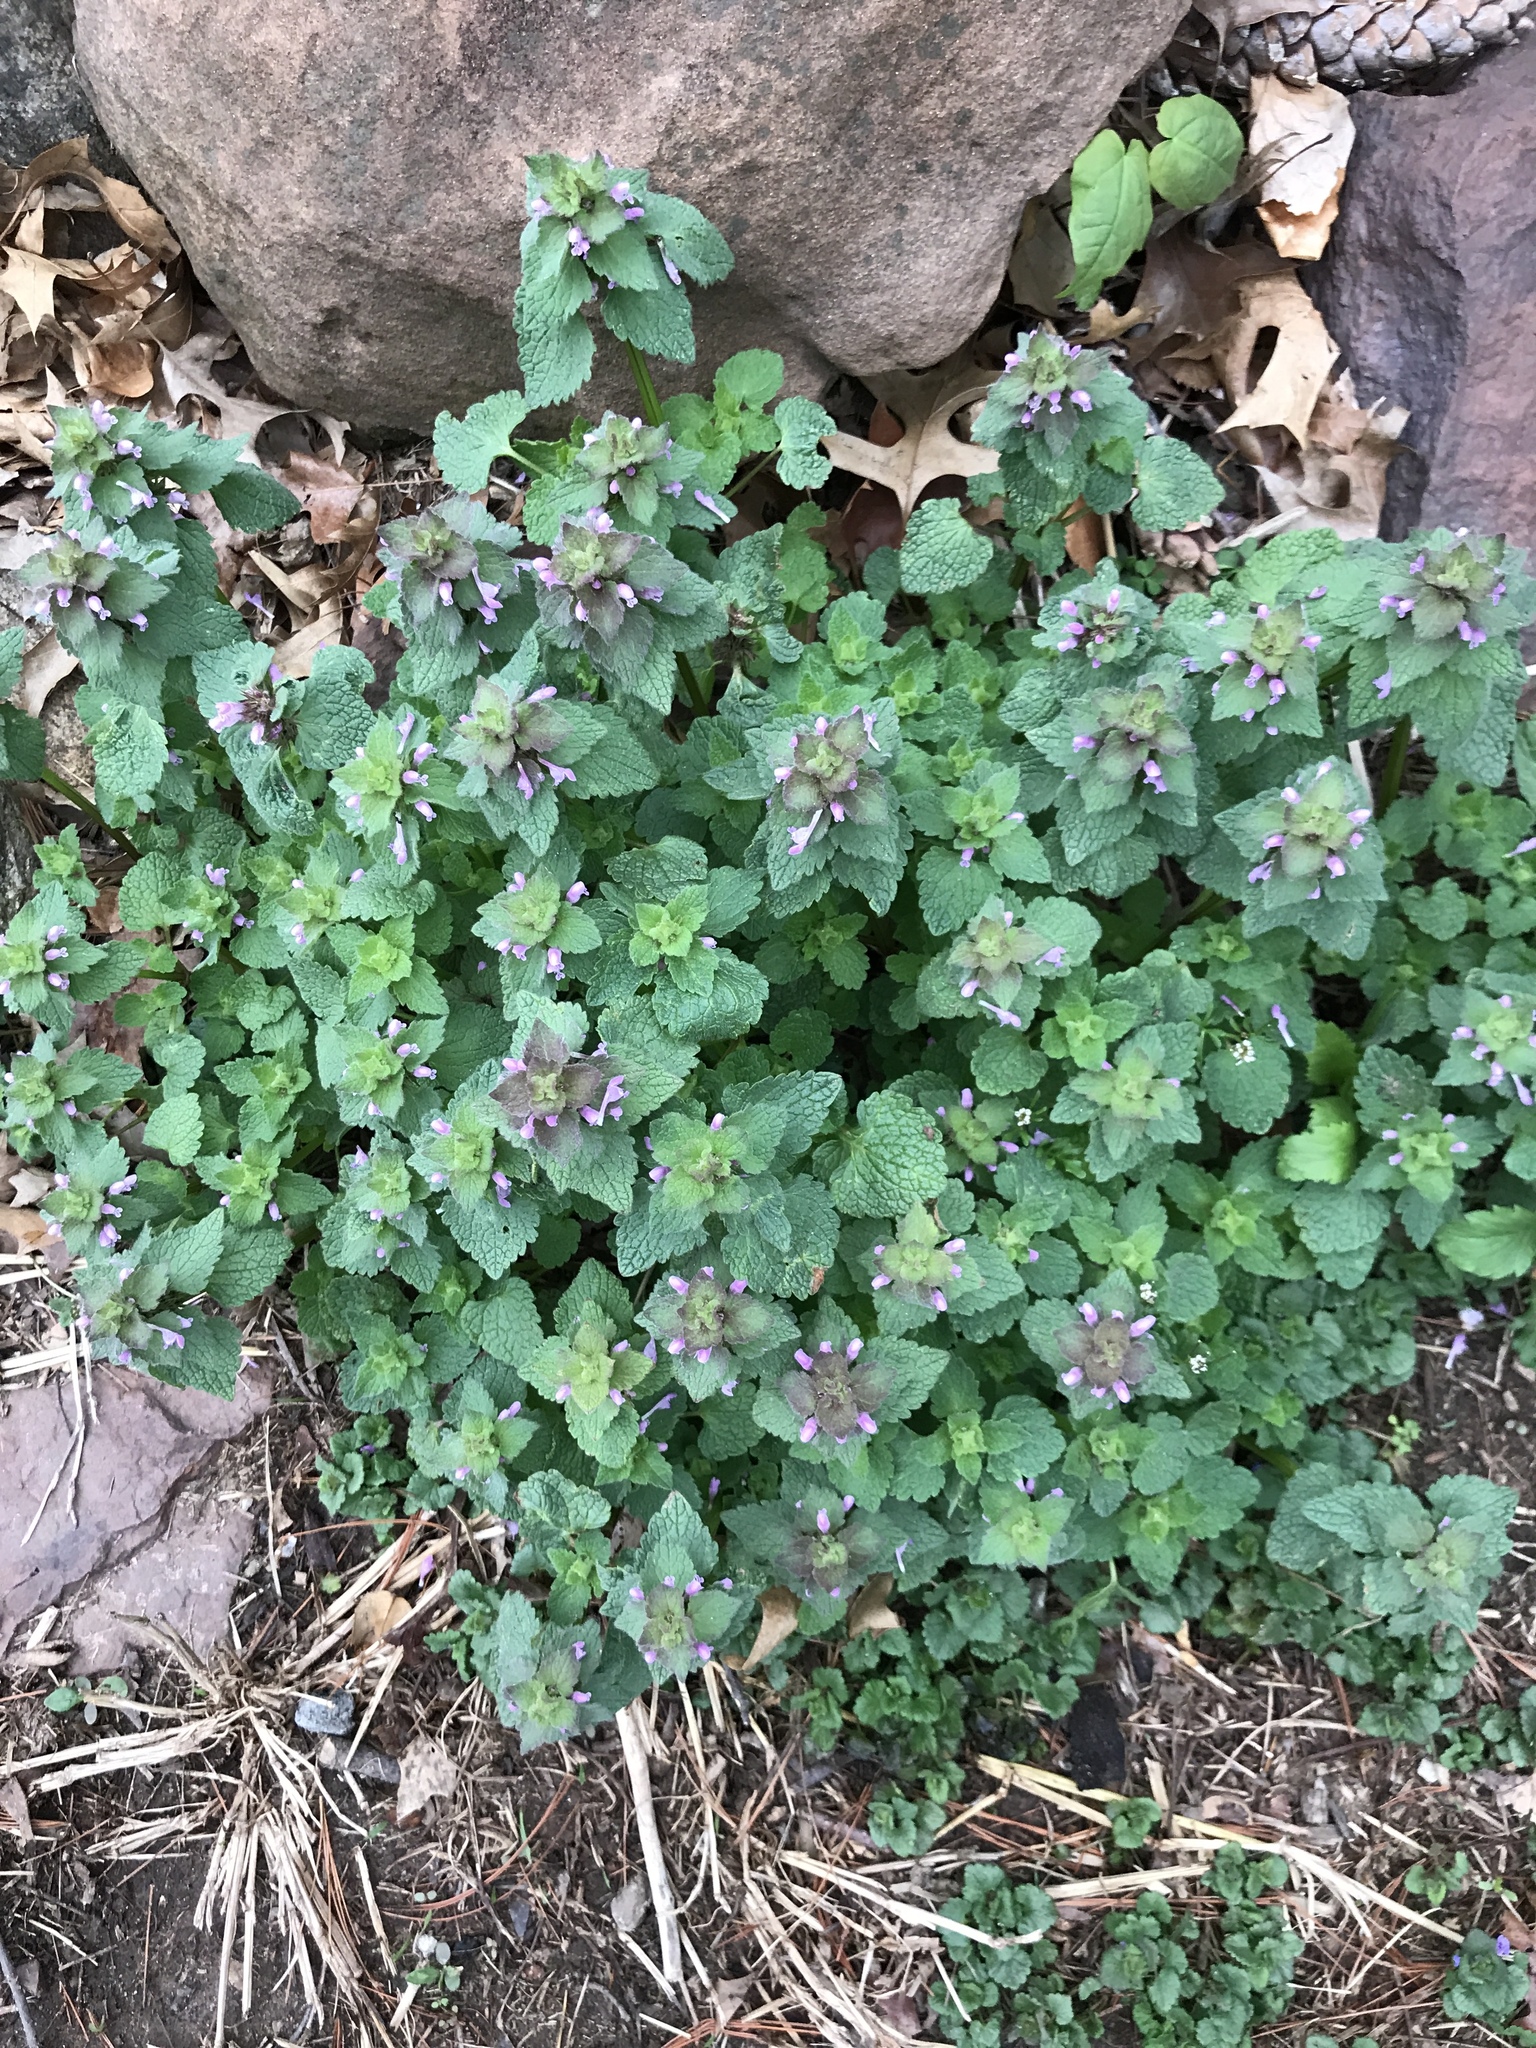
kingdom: Plantae
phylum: Tracheophyta
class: Magnoliopsida
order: Lamiales
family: Lamiaceae
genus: Lamium
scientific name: Lamium purpureum
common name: Red dead-nettle
